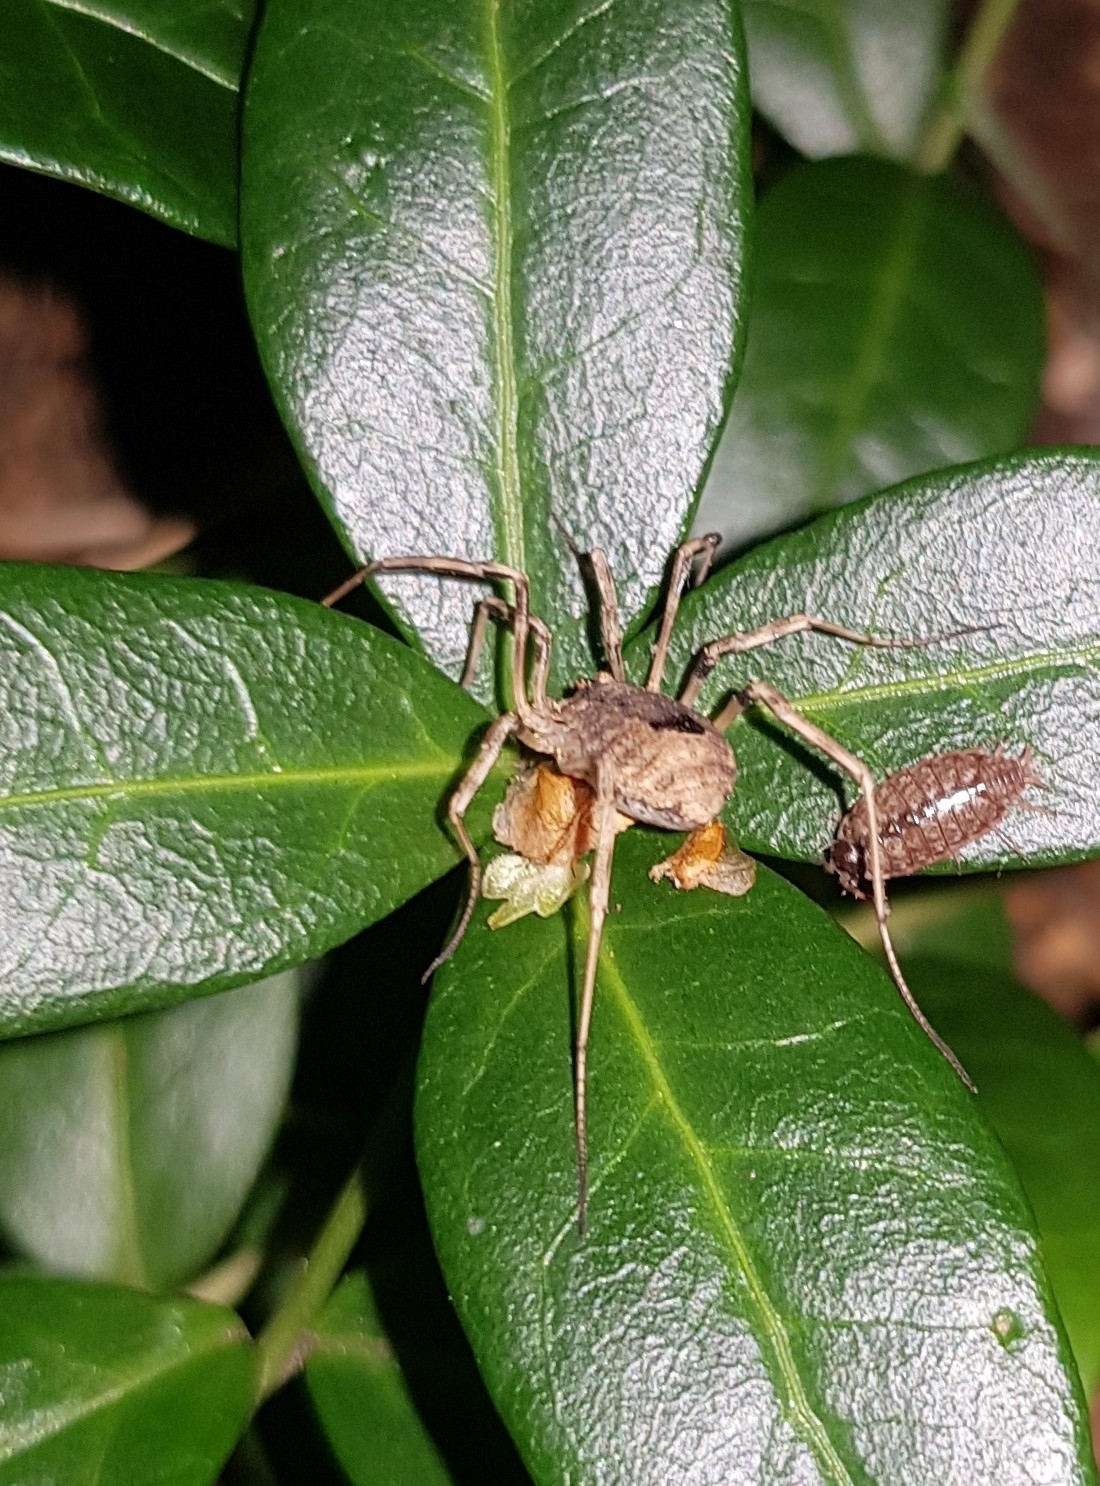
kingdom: Animalia
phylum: Arthropoda
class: Arachnida
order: Opiliones
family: Phalangiidae
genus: Odiellus
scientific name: Odiellus spinosus
